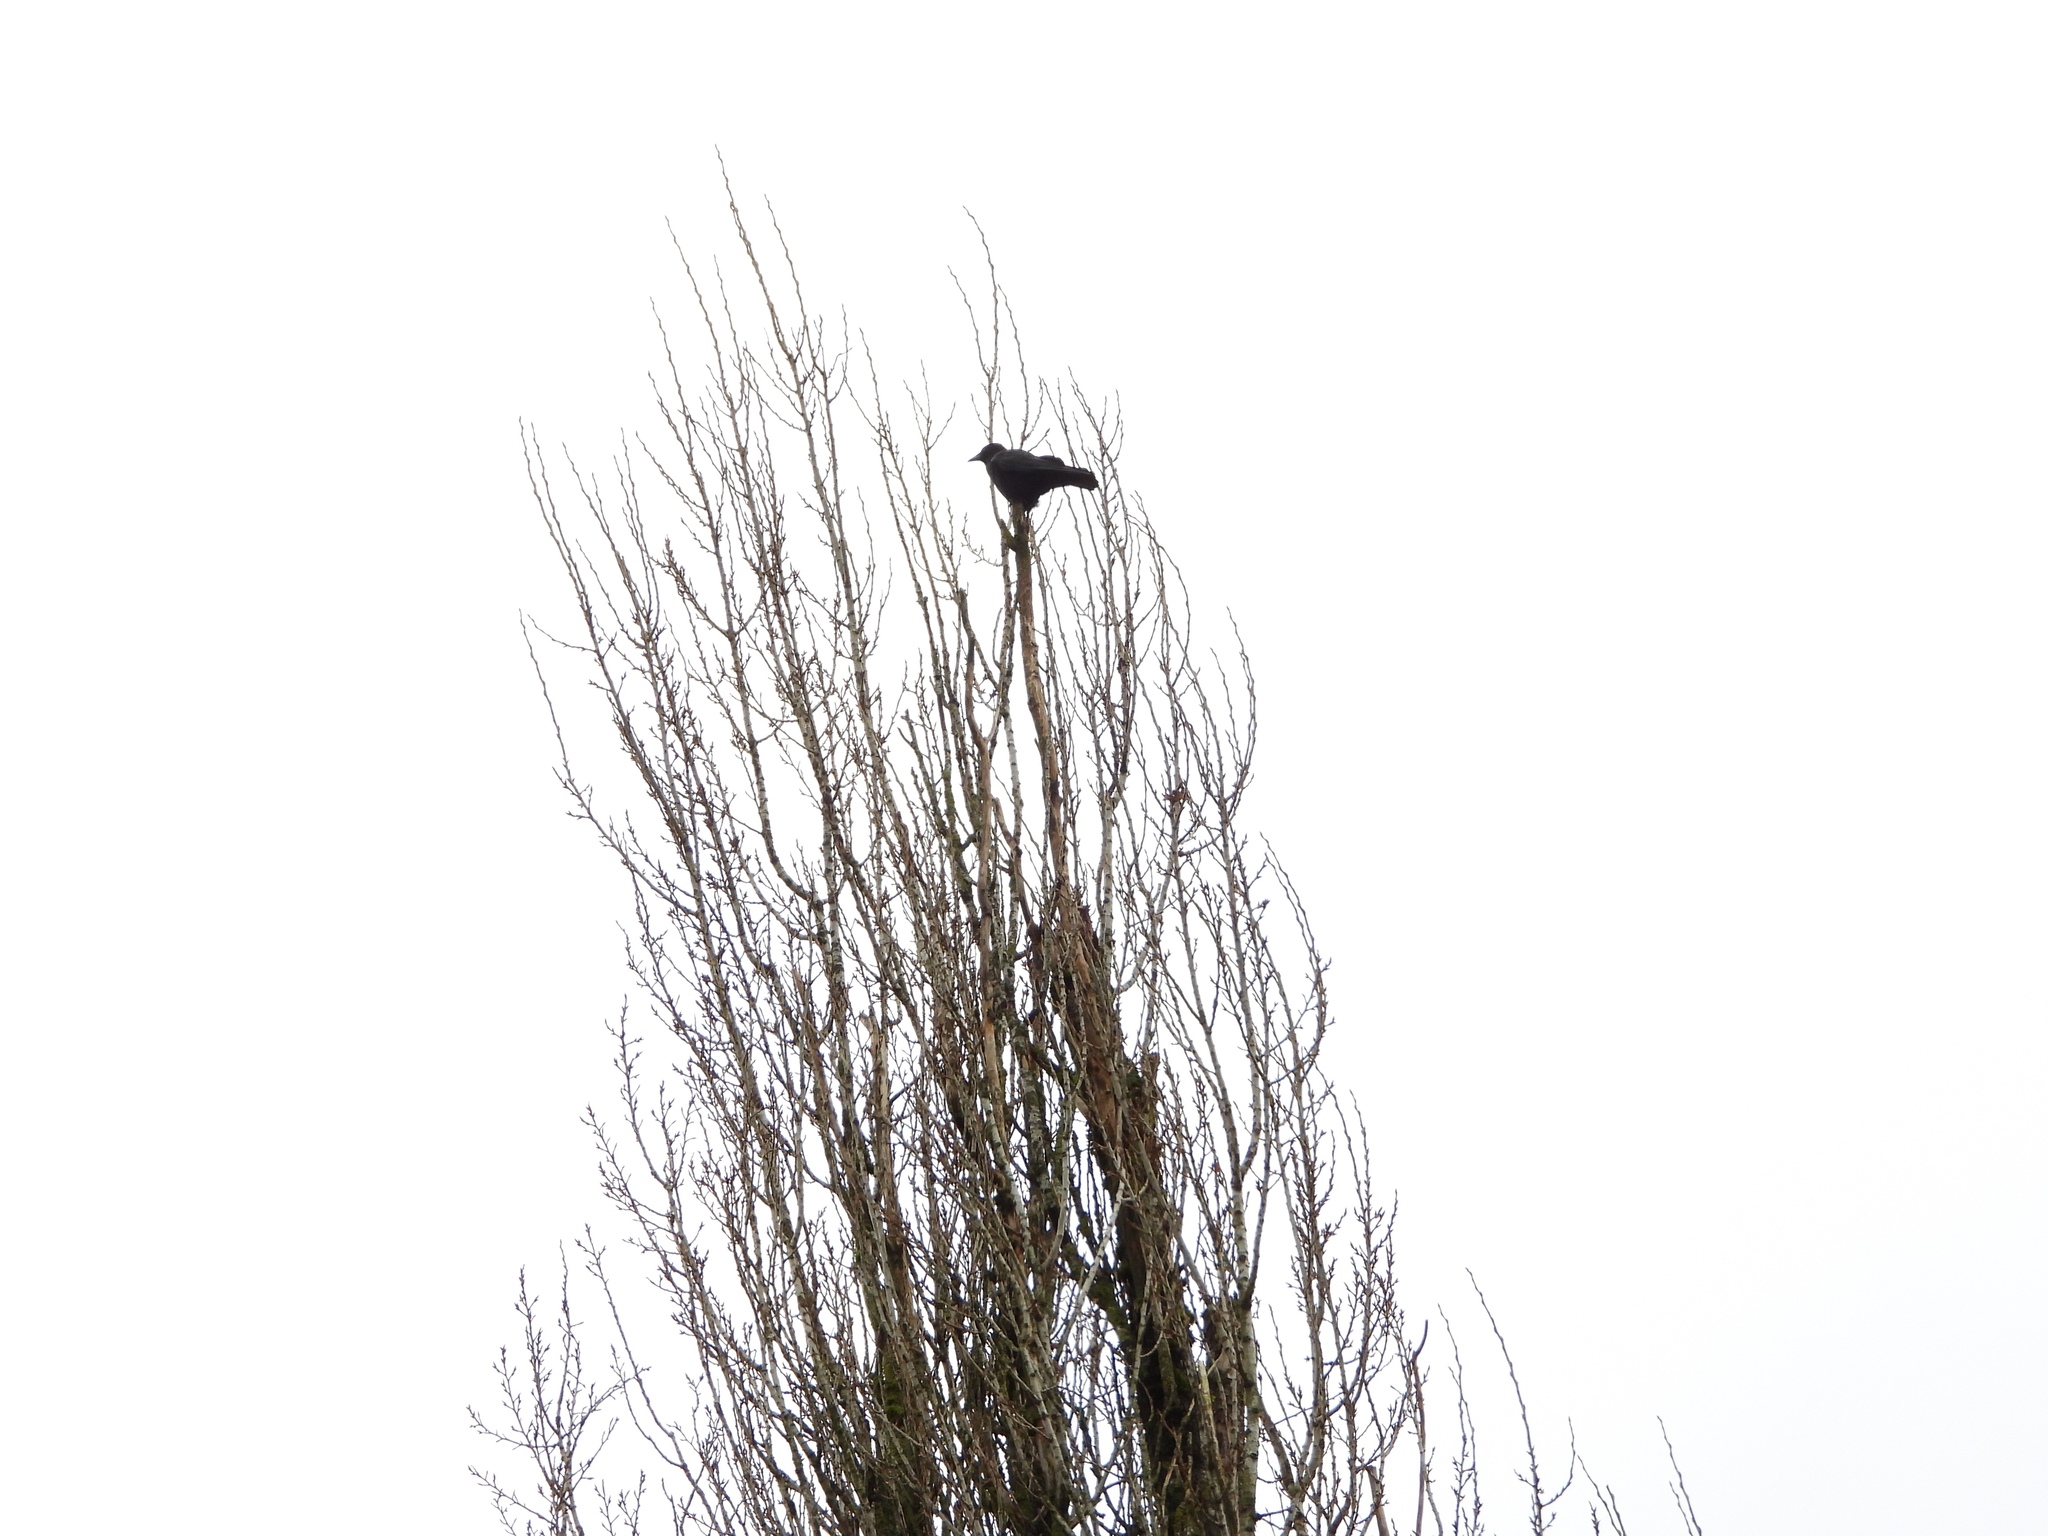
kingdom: Animalia
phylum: Chordata
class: Aves
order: Passeriformes
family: Corvidae
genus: Corvus
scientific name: Corvus brachyrhynchos
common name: American crow
